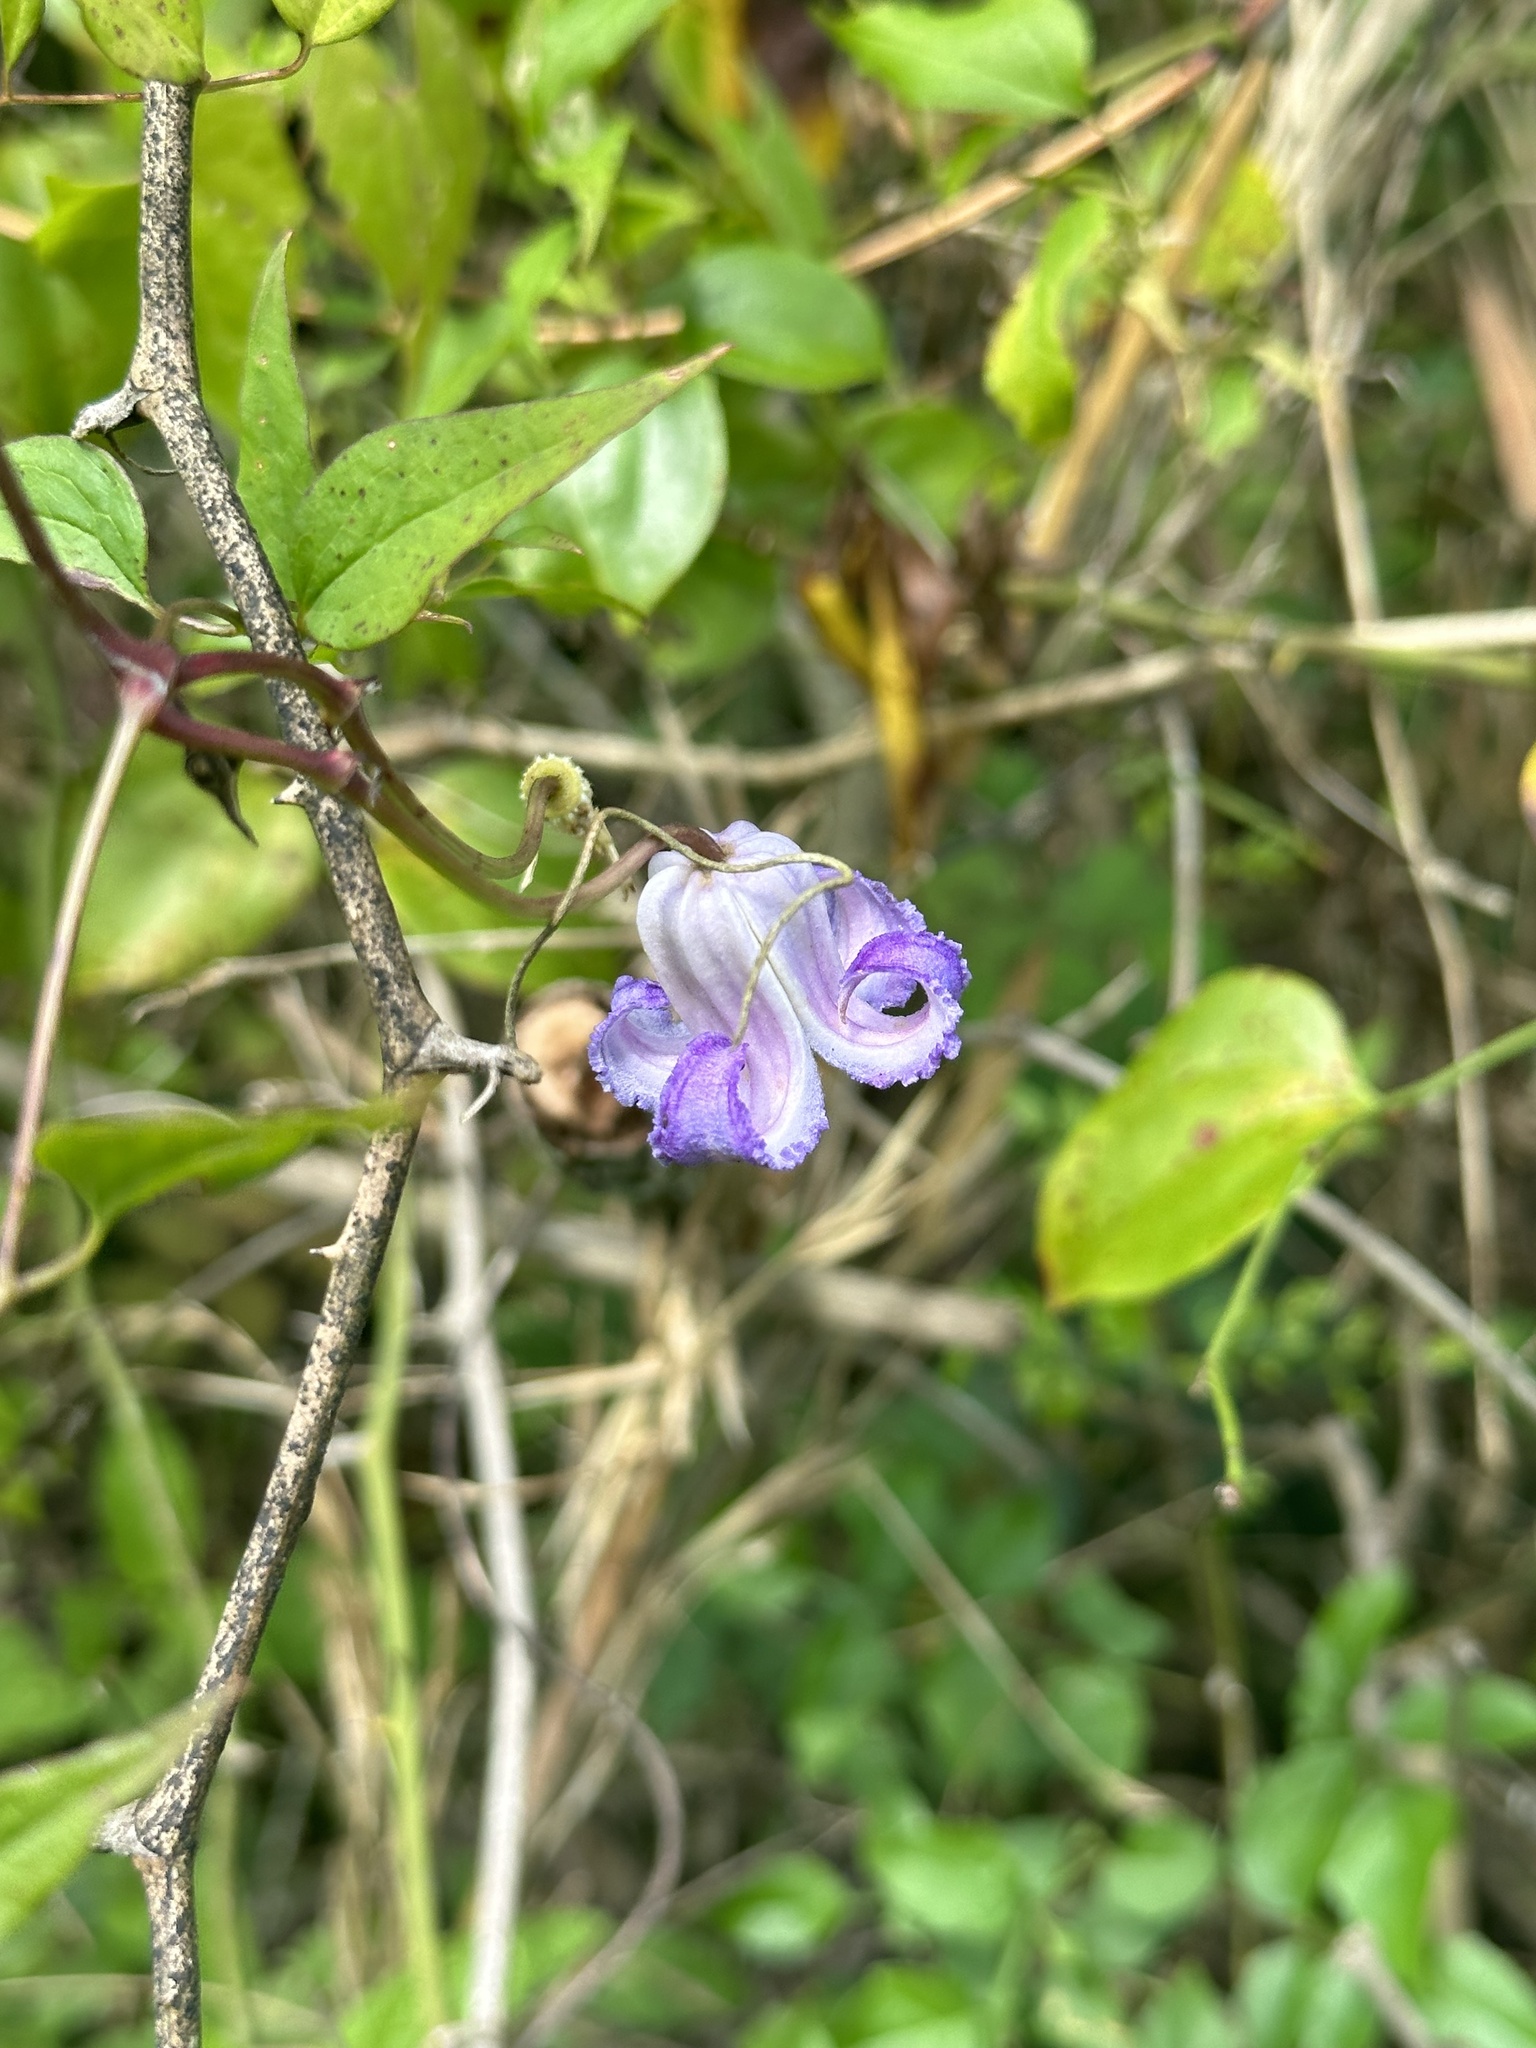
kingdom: Plantae
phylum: Tracheophyta
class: Magnoliopsida
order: Ranunculales
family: Ranunculaceae
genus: Clematis
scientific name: Clematis crispa
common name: Curly clematis
